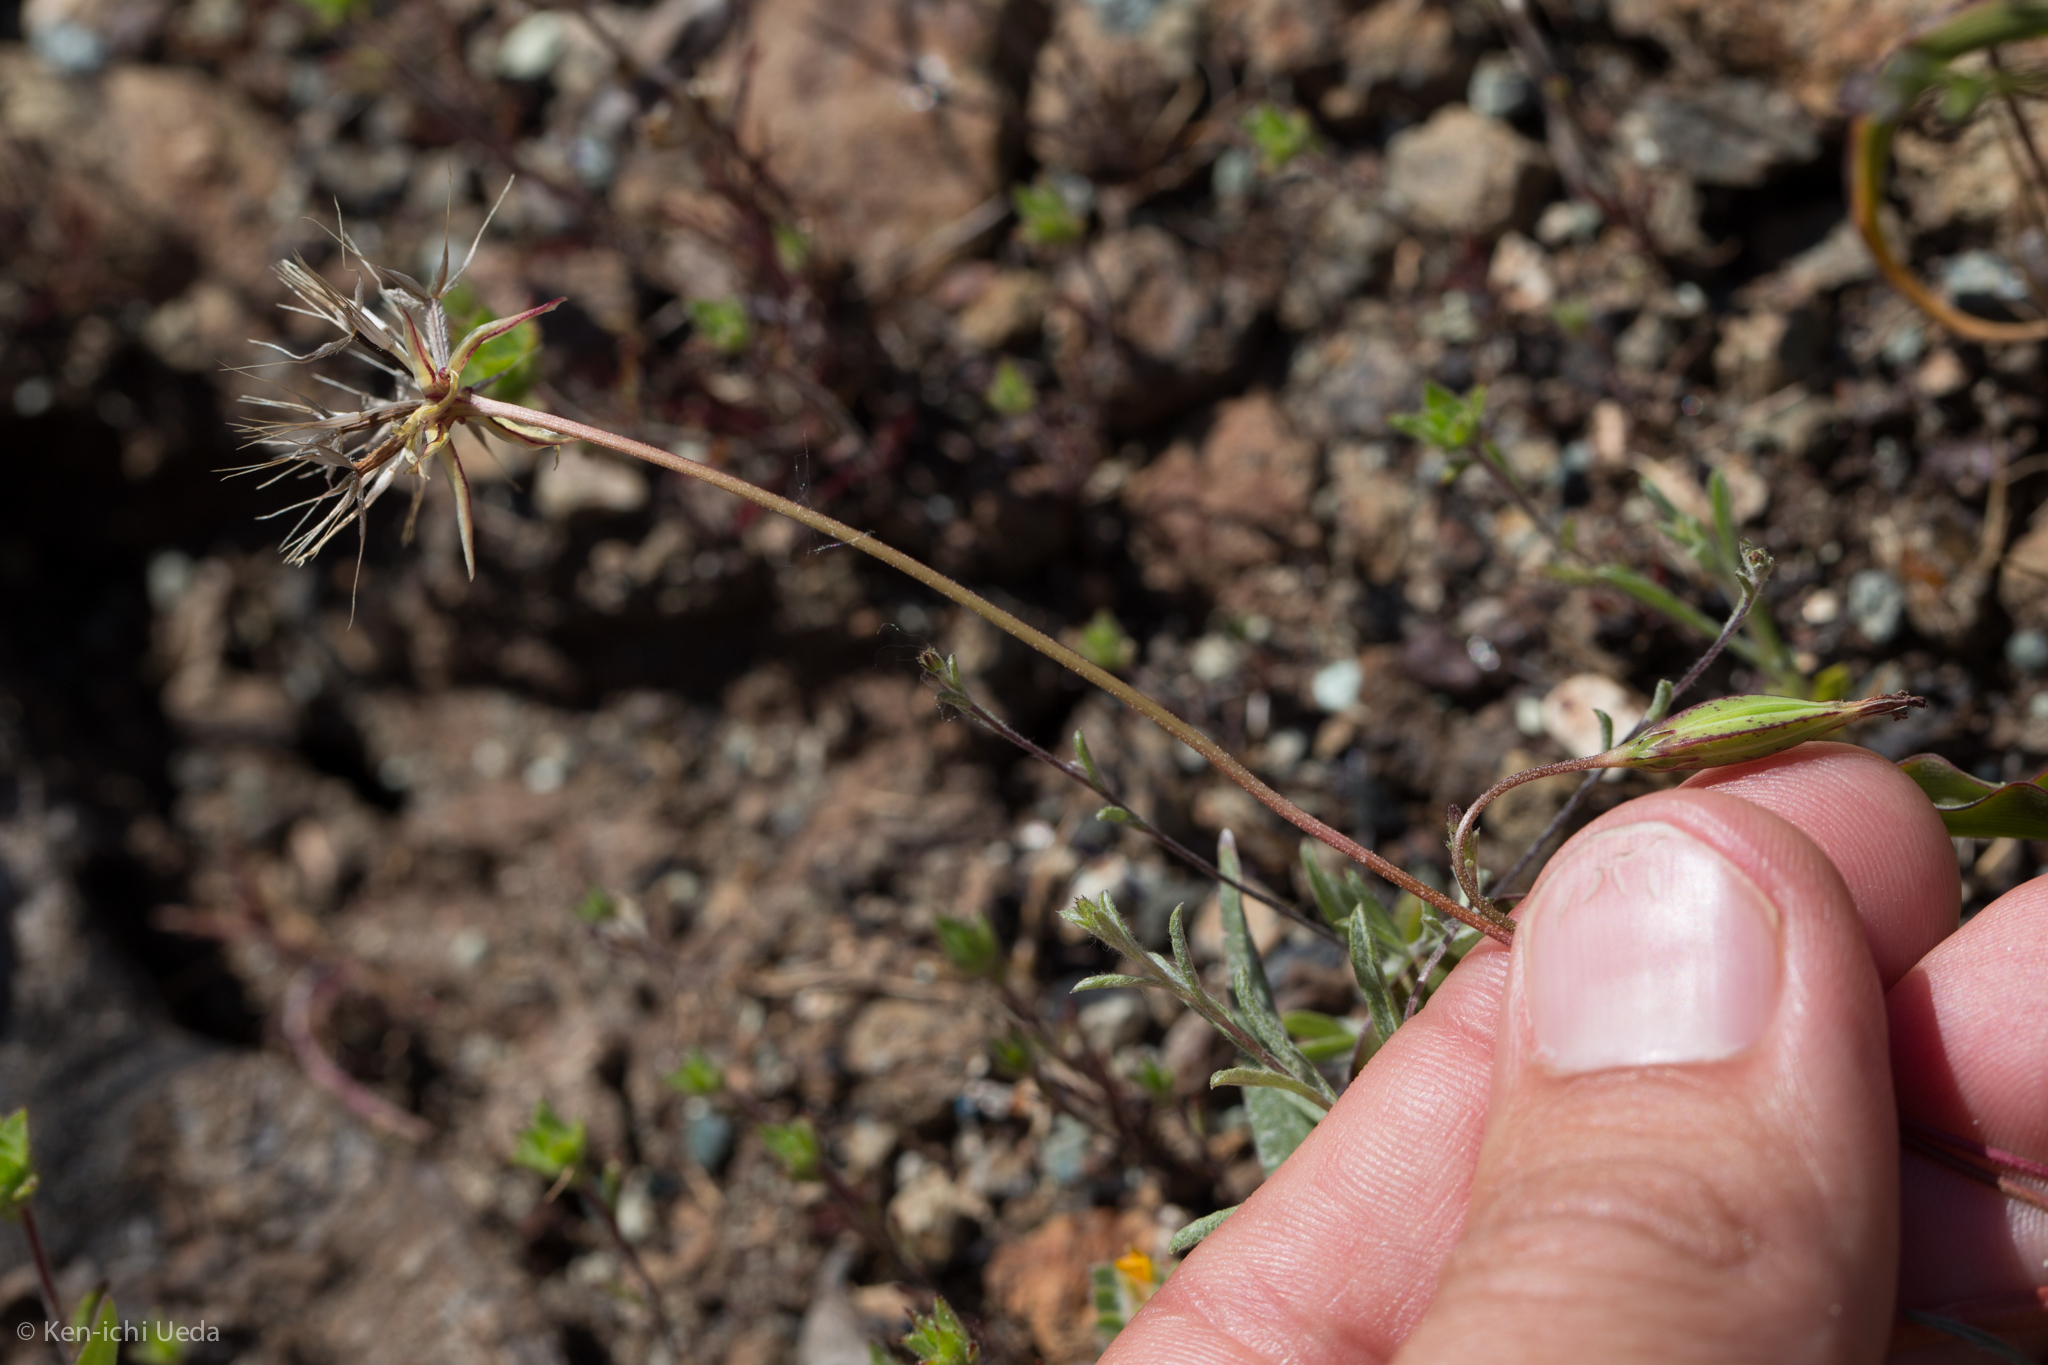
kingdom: Plantae
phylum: Tracheophyta
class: Magnoliopsida
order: Asterales
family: Asteraceae
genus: Microseris
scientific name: Microseris douglasii
